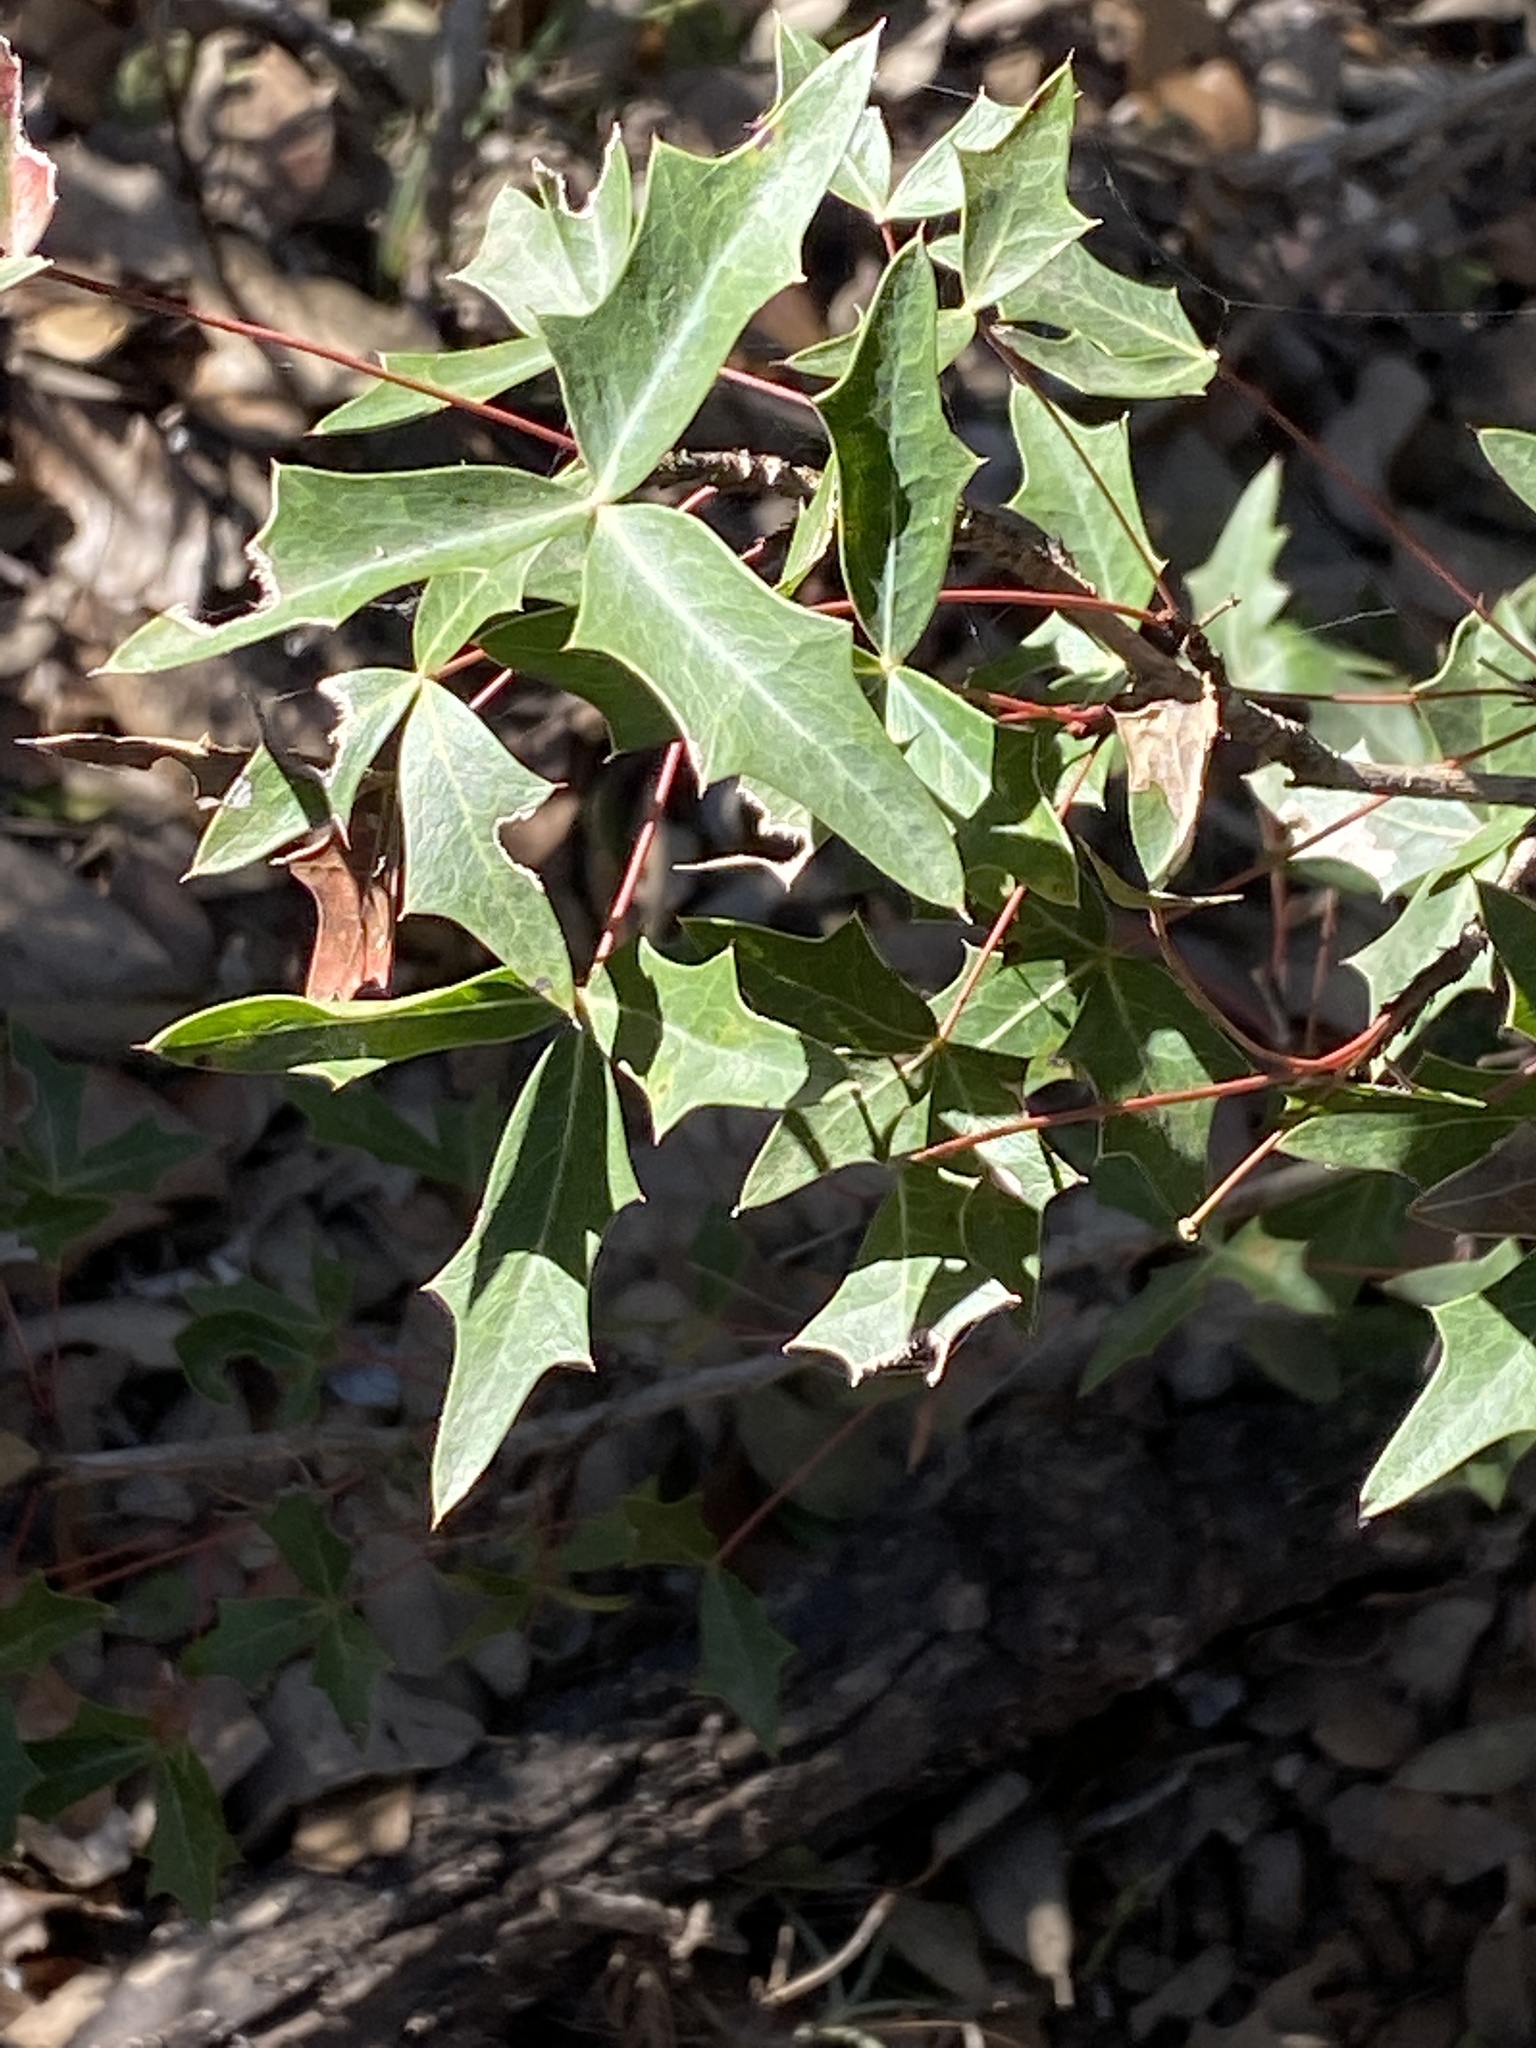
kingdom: Plantae
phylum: Tracheophyta
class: Magnoliopsida
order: Ranunculales
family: Berberidaceae
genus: Alloberberis
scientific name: Alloberberis trifoliolata
